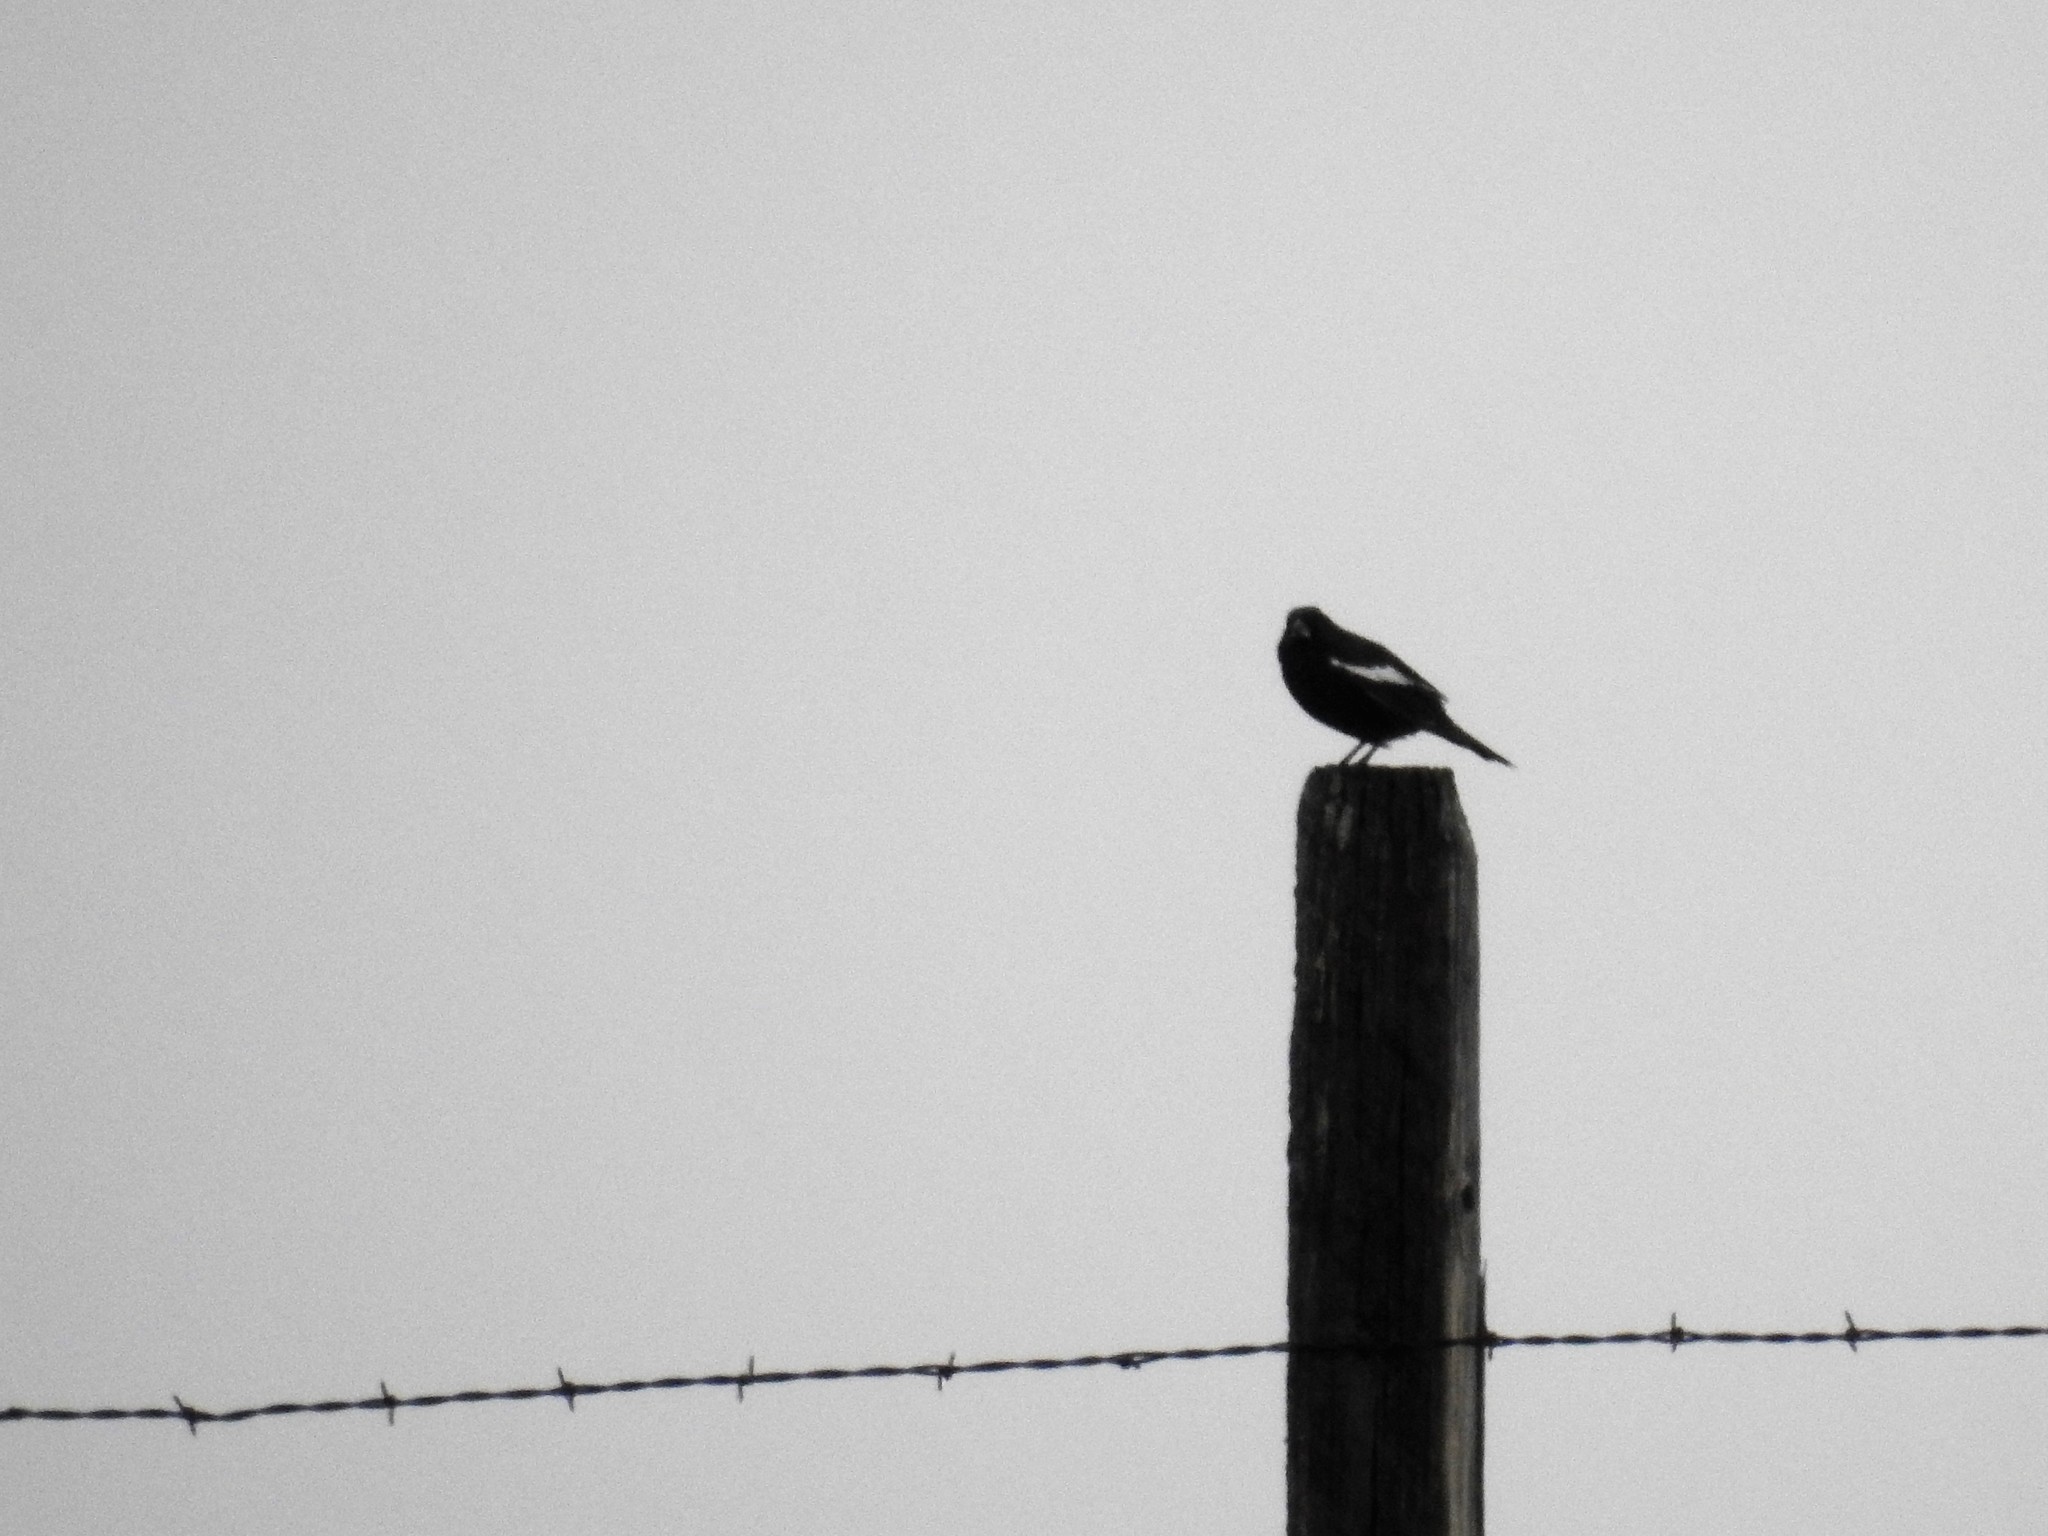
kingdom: Animalia
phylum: Chordata
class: Aves
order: Passeriformes
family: Passerellidae
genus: Calamospiza
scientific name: Calamospiza melanocorys
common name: Lark bunting
